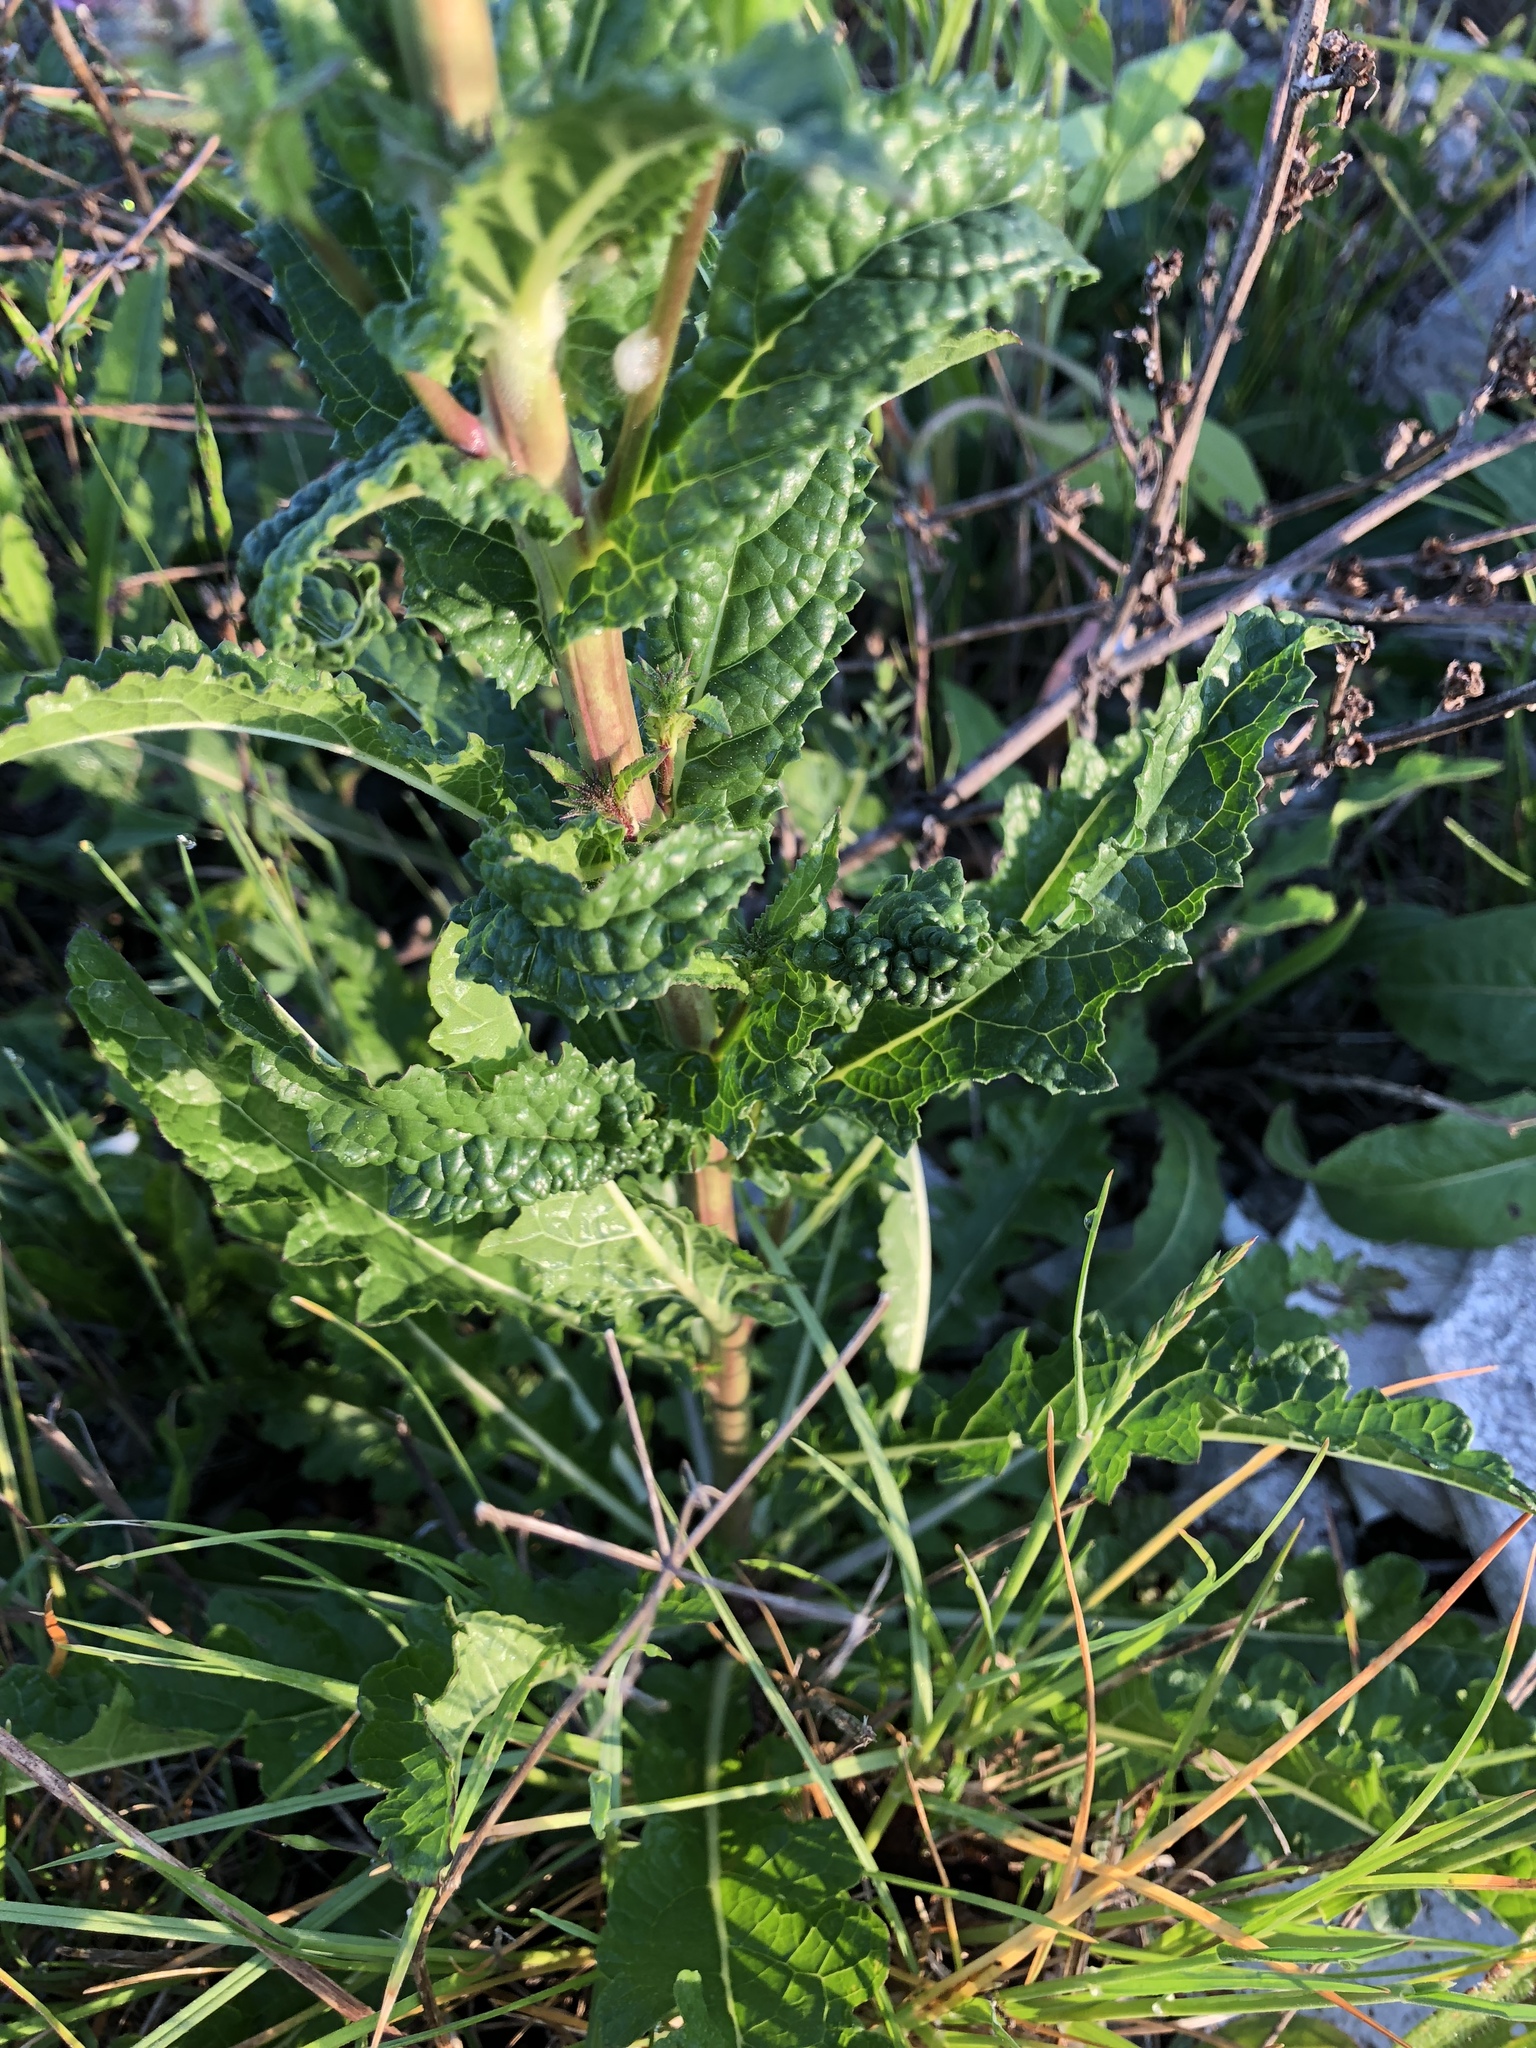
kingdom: Plantae
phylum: Tracheophyta
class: Magnoliopsida
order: Lamiales
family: Scrophulariaceae
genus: Verbascum
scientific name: Verbascum nigrum
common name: Dark mullein
